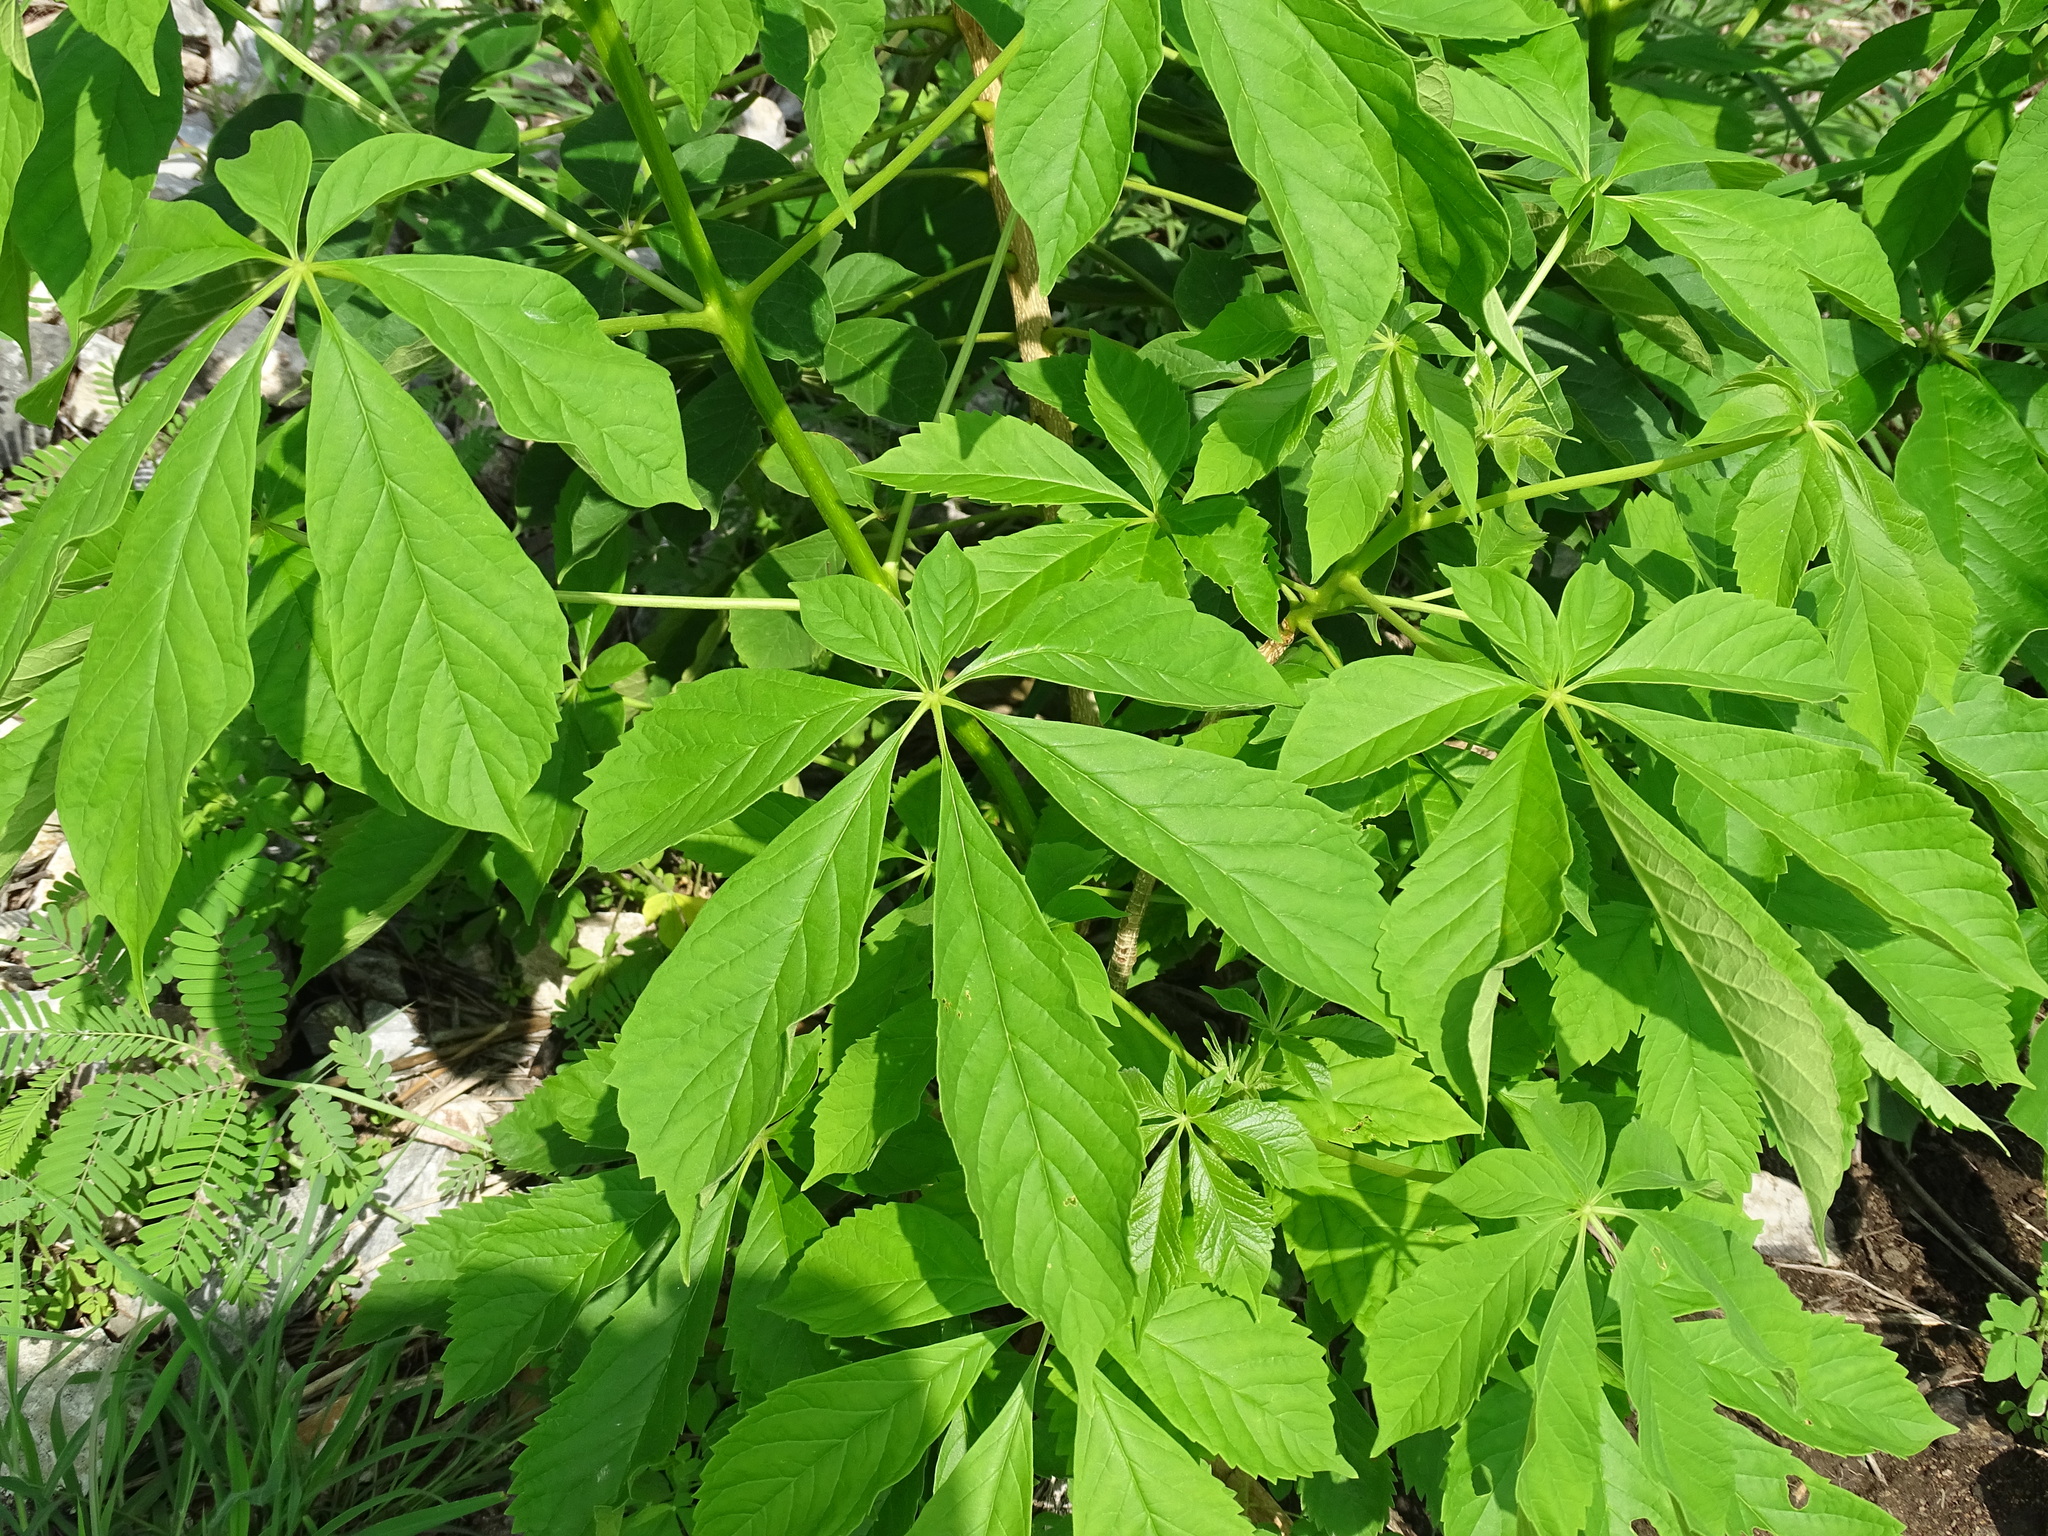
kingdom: Plantae
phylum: Tracheophyta
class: Magnoliopsida
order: Lamiales
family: Bignoniaceae
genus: Godmania
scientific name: Godmania aesculifolia
